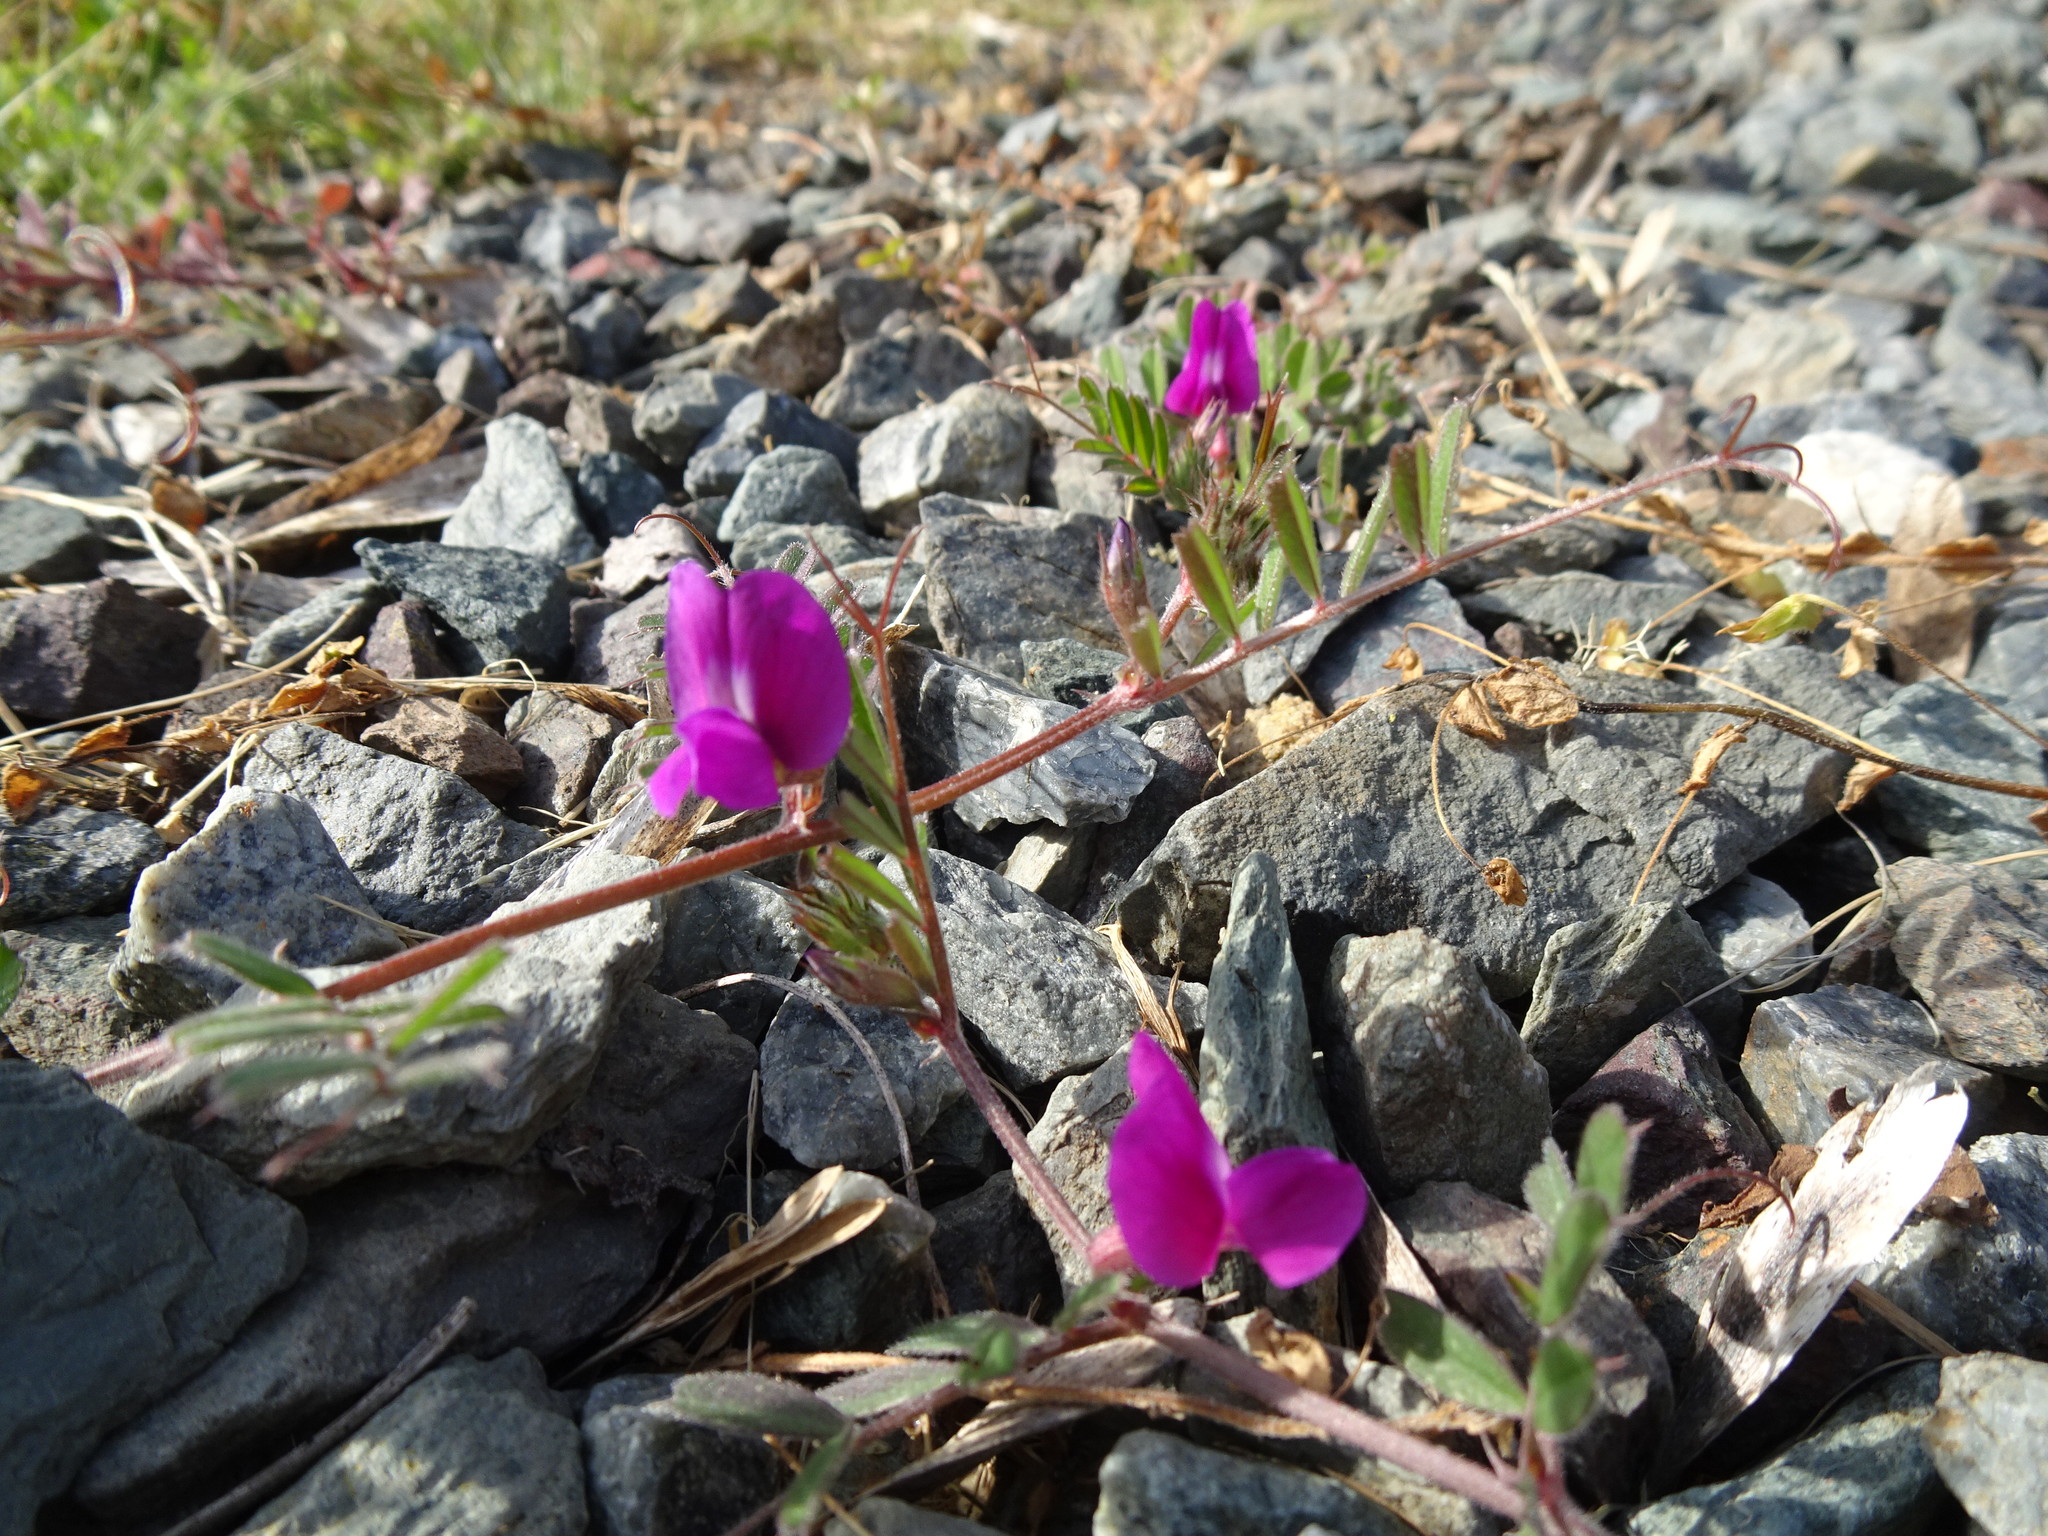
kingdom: Plantae
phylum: Tracheophyta
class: Magnoliopsida
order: Fabales
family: Fabaceae
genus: Vicia
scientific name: Vicia sativa
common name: Garden vetch
